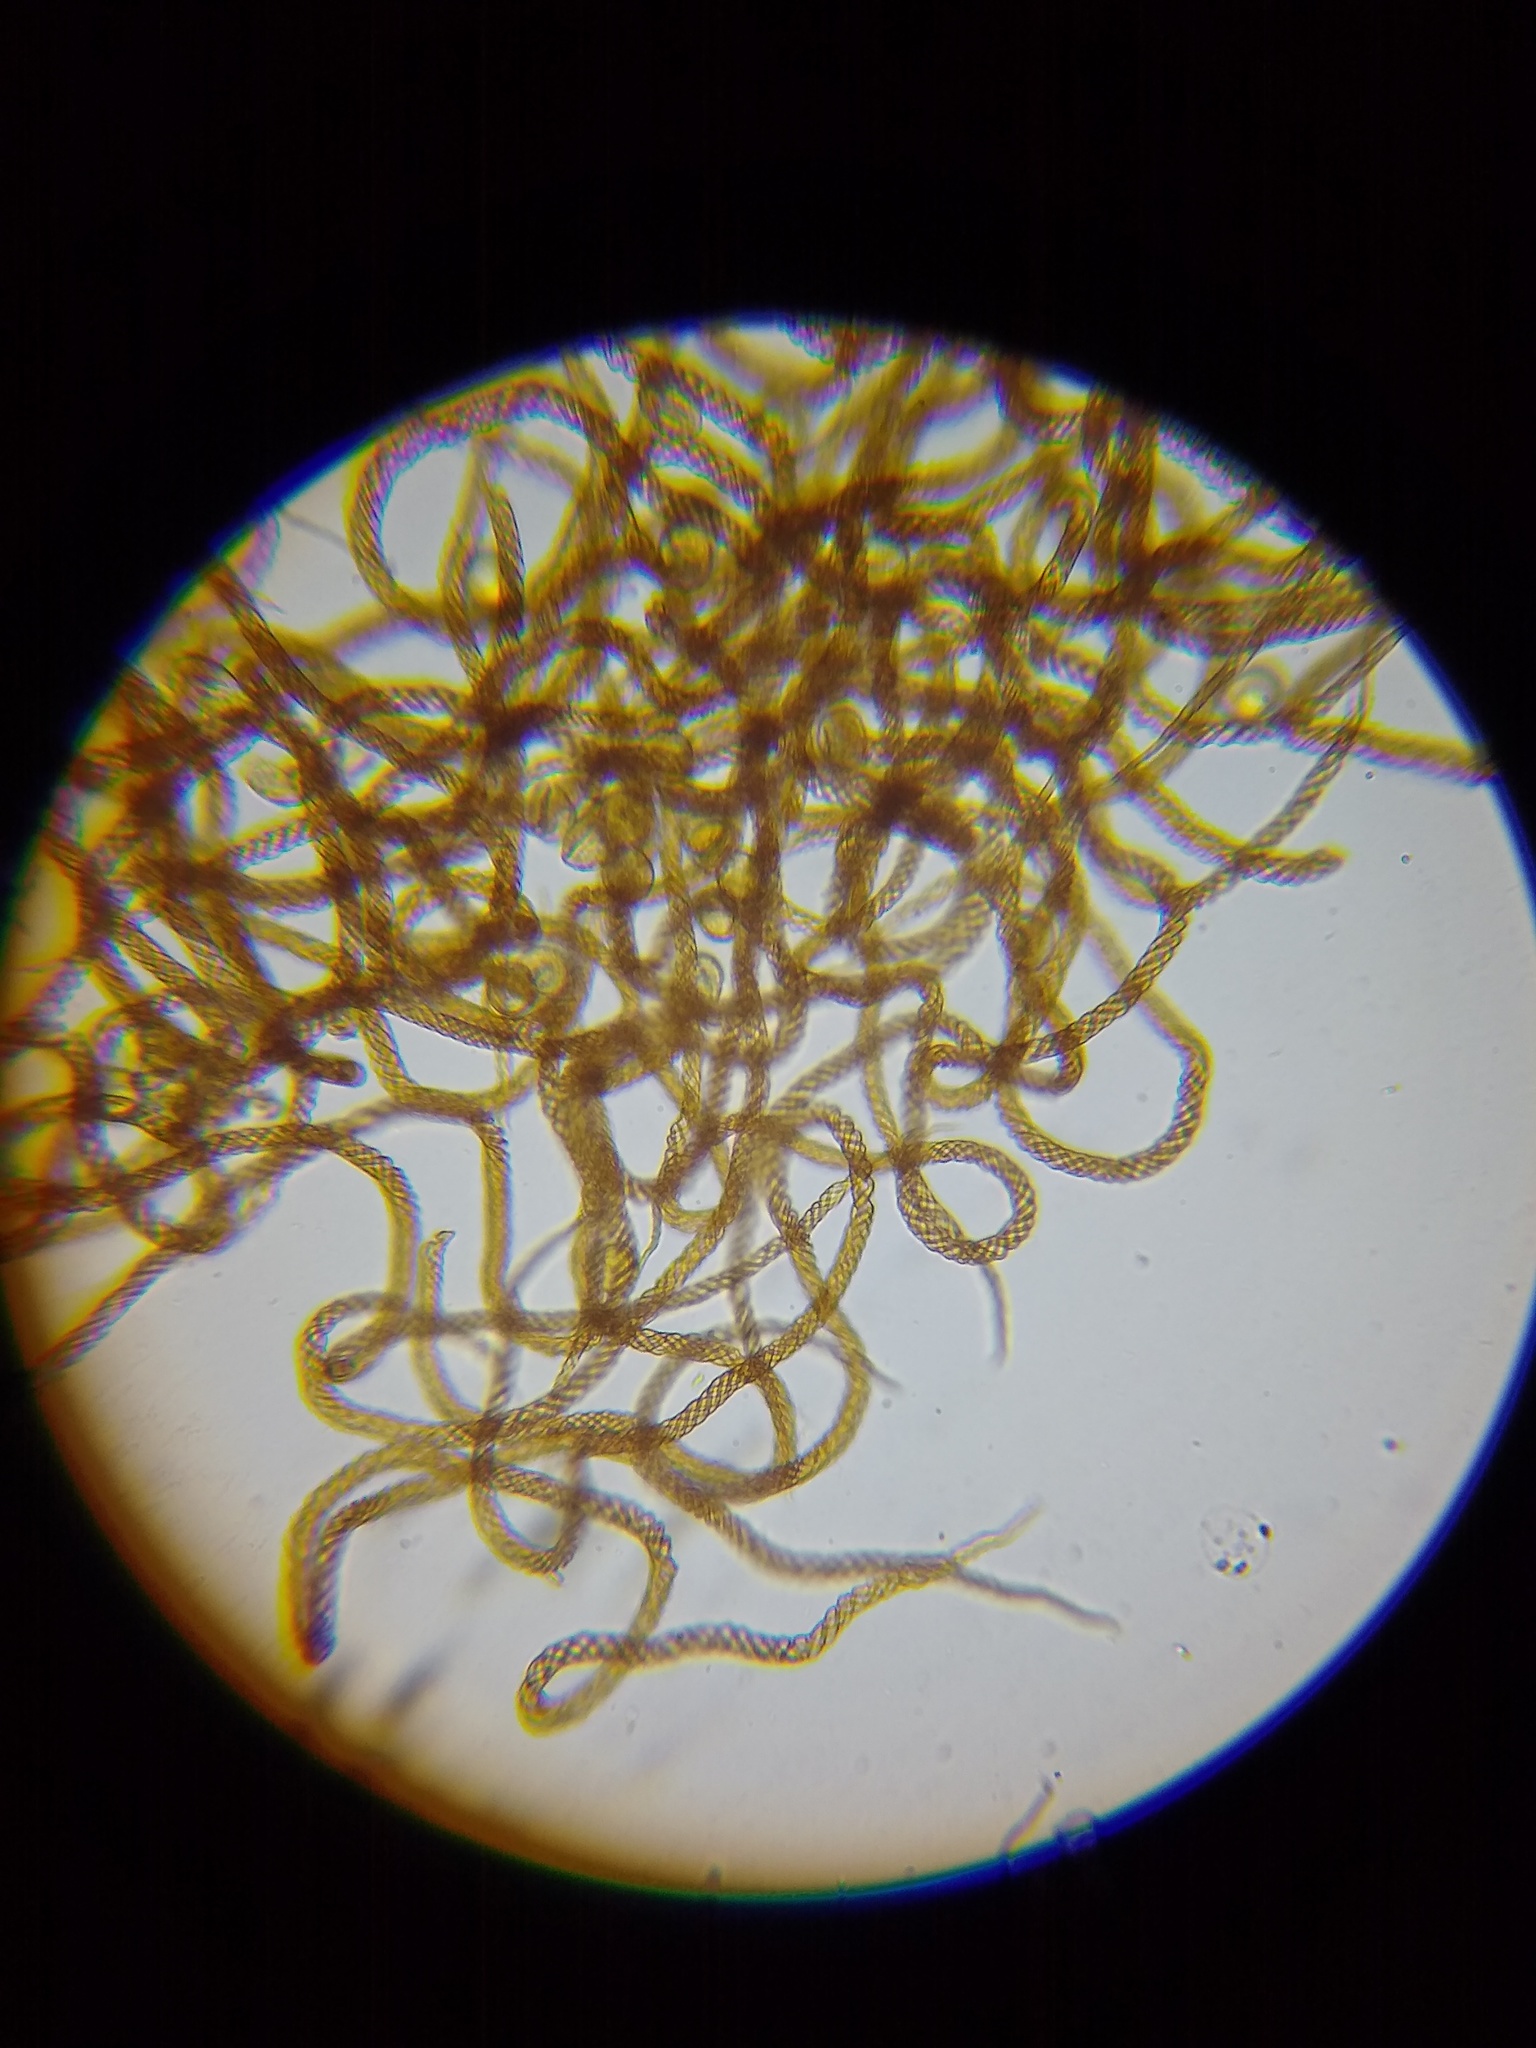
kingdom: Protozoa
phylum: Mycetozoa
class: Myxomycetes
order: Trichiales
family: Trichiaceae
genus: Metatrichia
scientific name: Metatrichia floriformis
